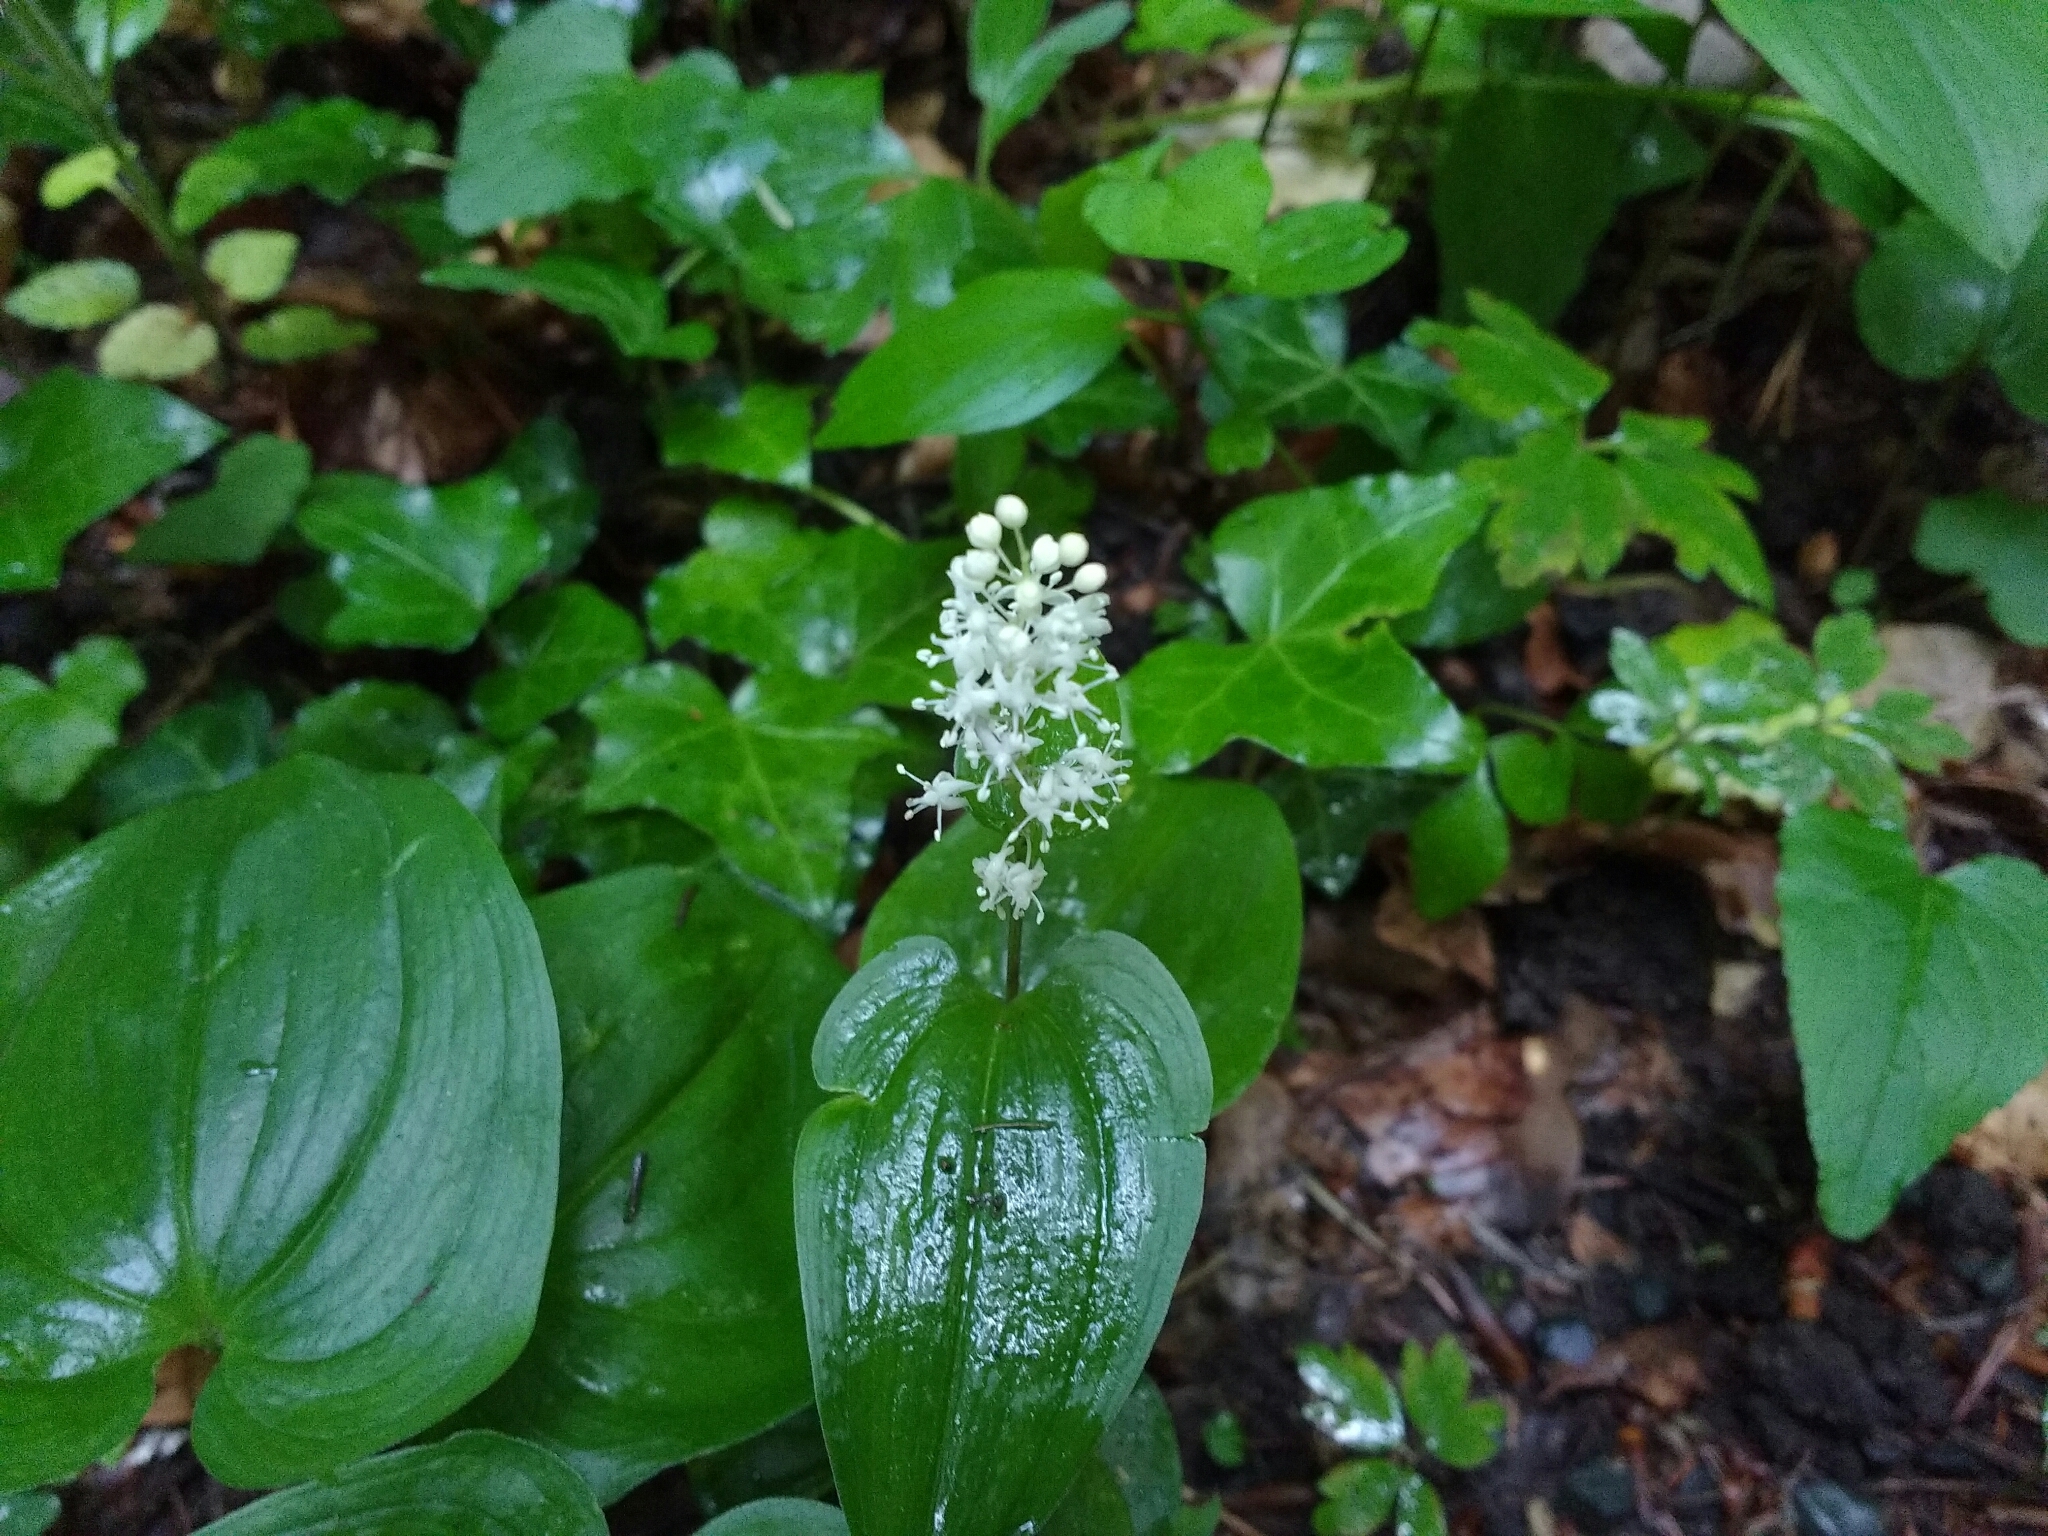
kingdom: Plantae
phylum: Tracheophyta
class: Liliopsida
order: Asparagales
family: Asparagaceae
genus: Maianthemum
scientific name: Maianthemum bifolium
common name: May lily
